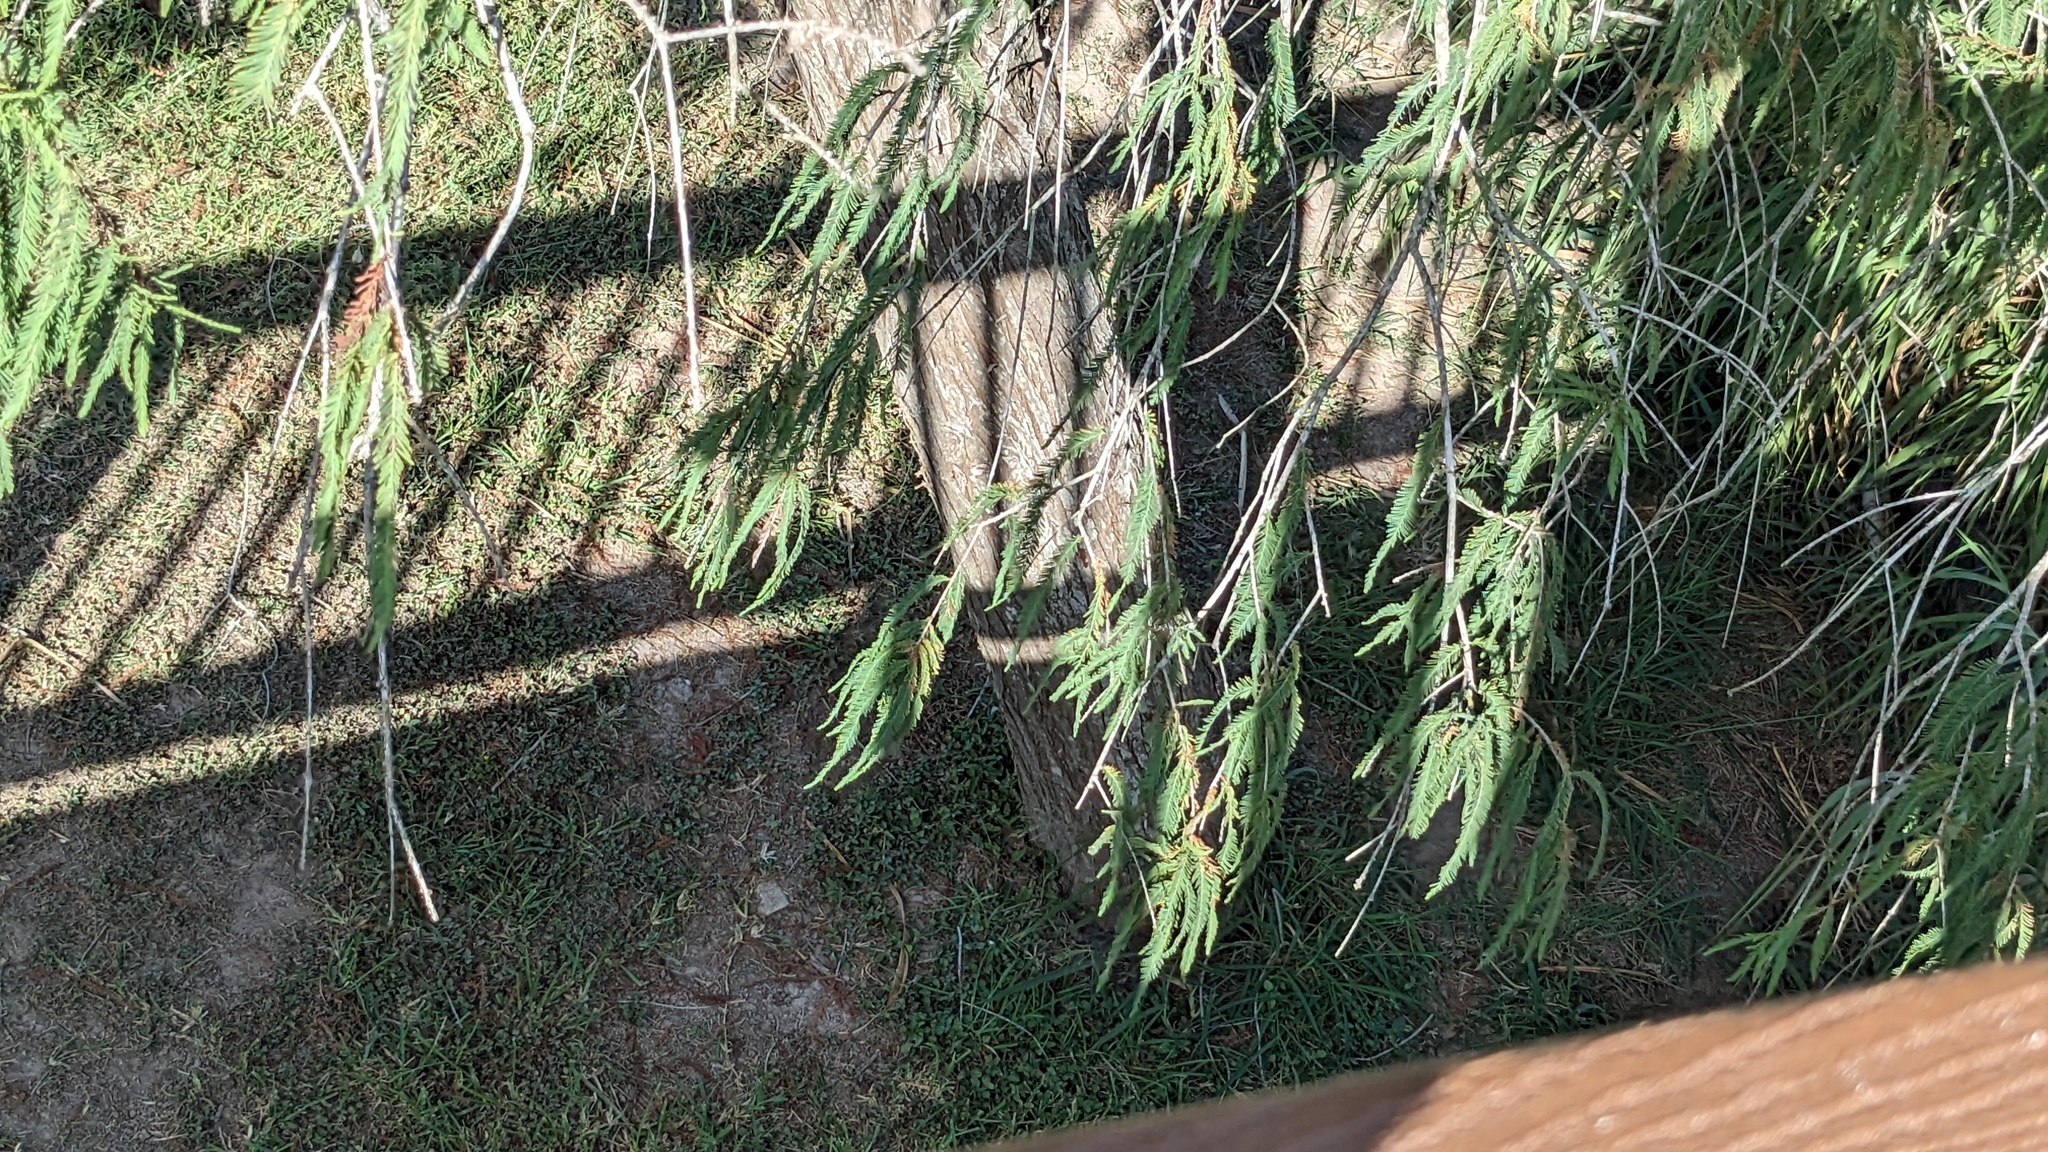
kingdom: Plantae
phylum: Tracheophyta
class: Pinopsida
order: Pinales
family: Cupressaceae
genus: Taxodium
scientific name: Taxodium mucronatum
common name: Montezume bald cypress
